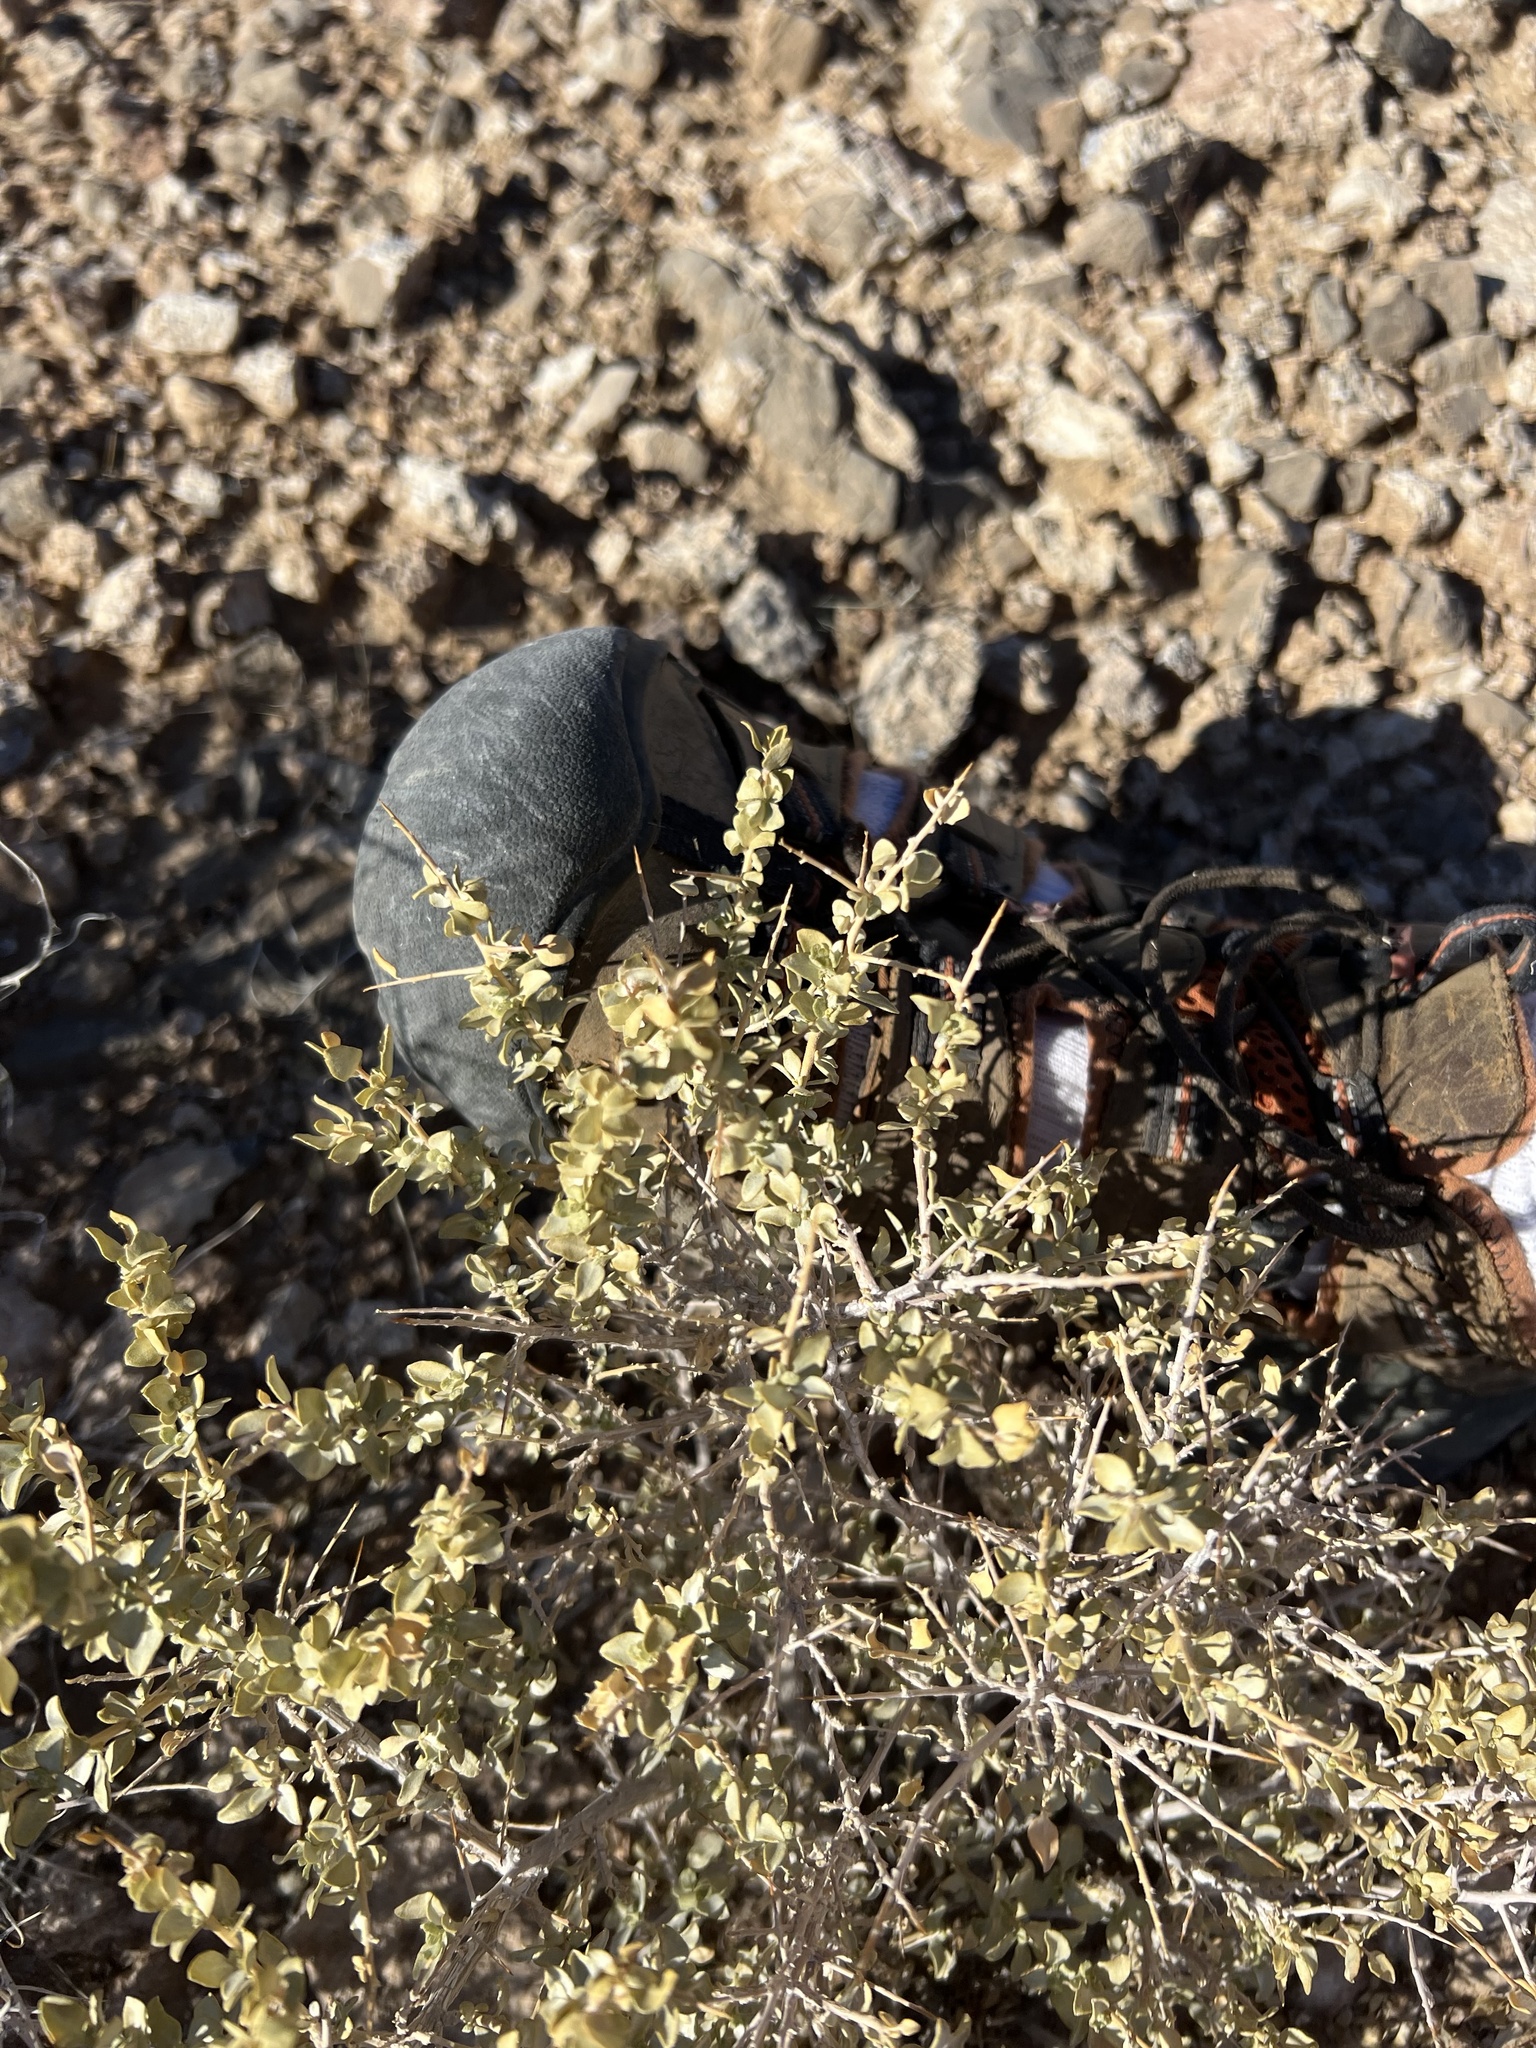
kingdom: Plantae
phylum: Tracheophyta
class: Magnoliopsida
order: Caryophyllales
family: Amaranthaceae
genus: Atriplex
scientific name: Atriplex confertifolia
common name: Shadscale
